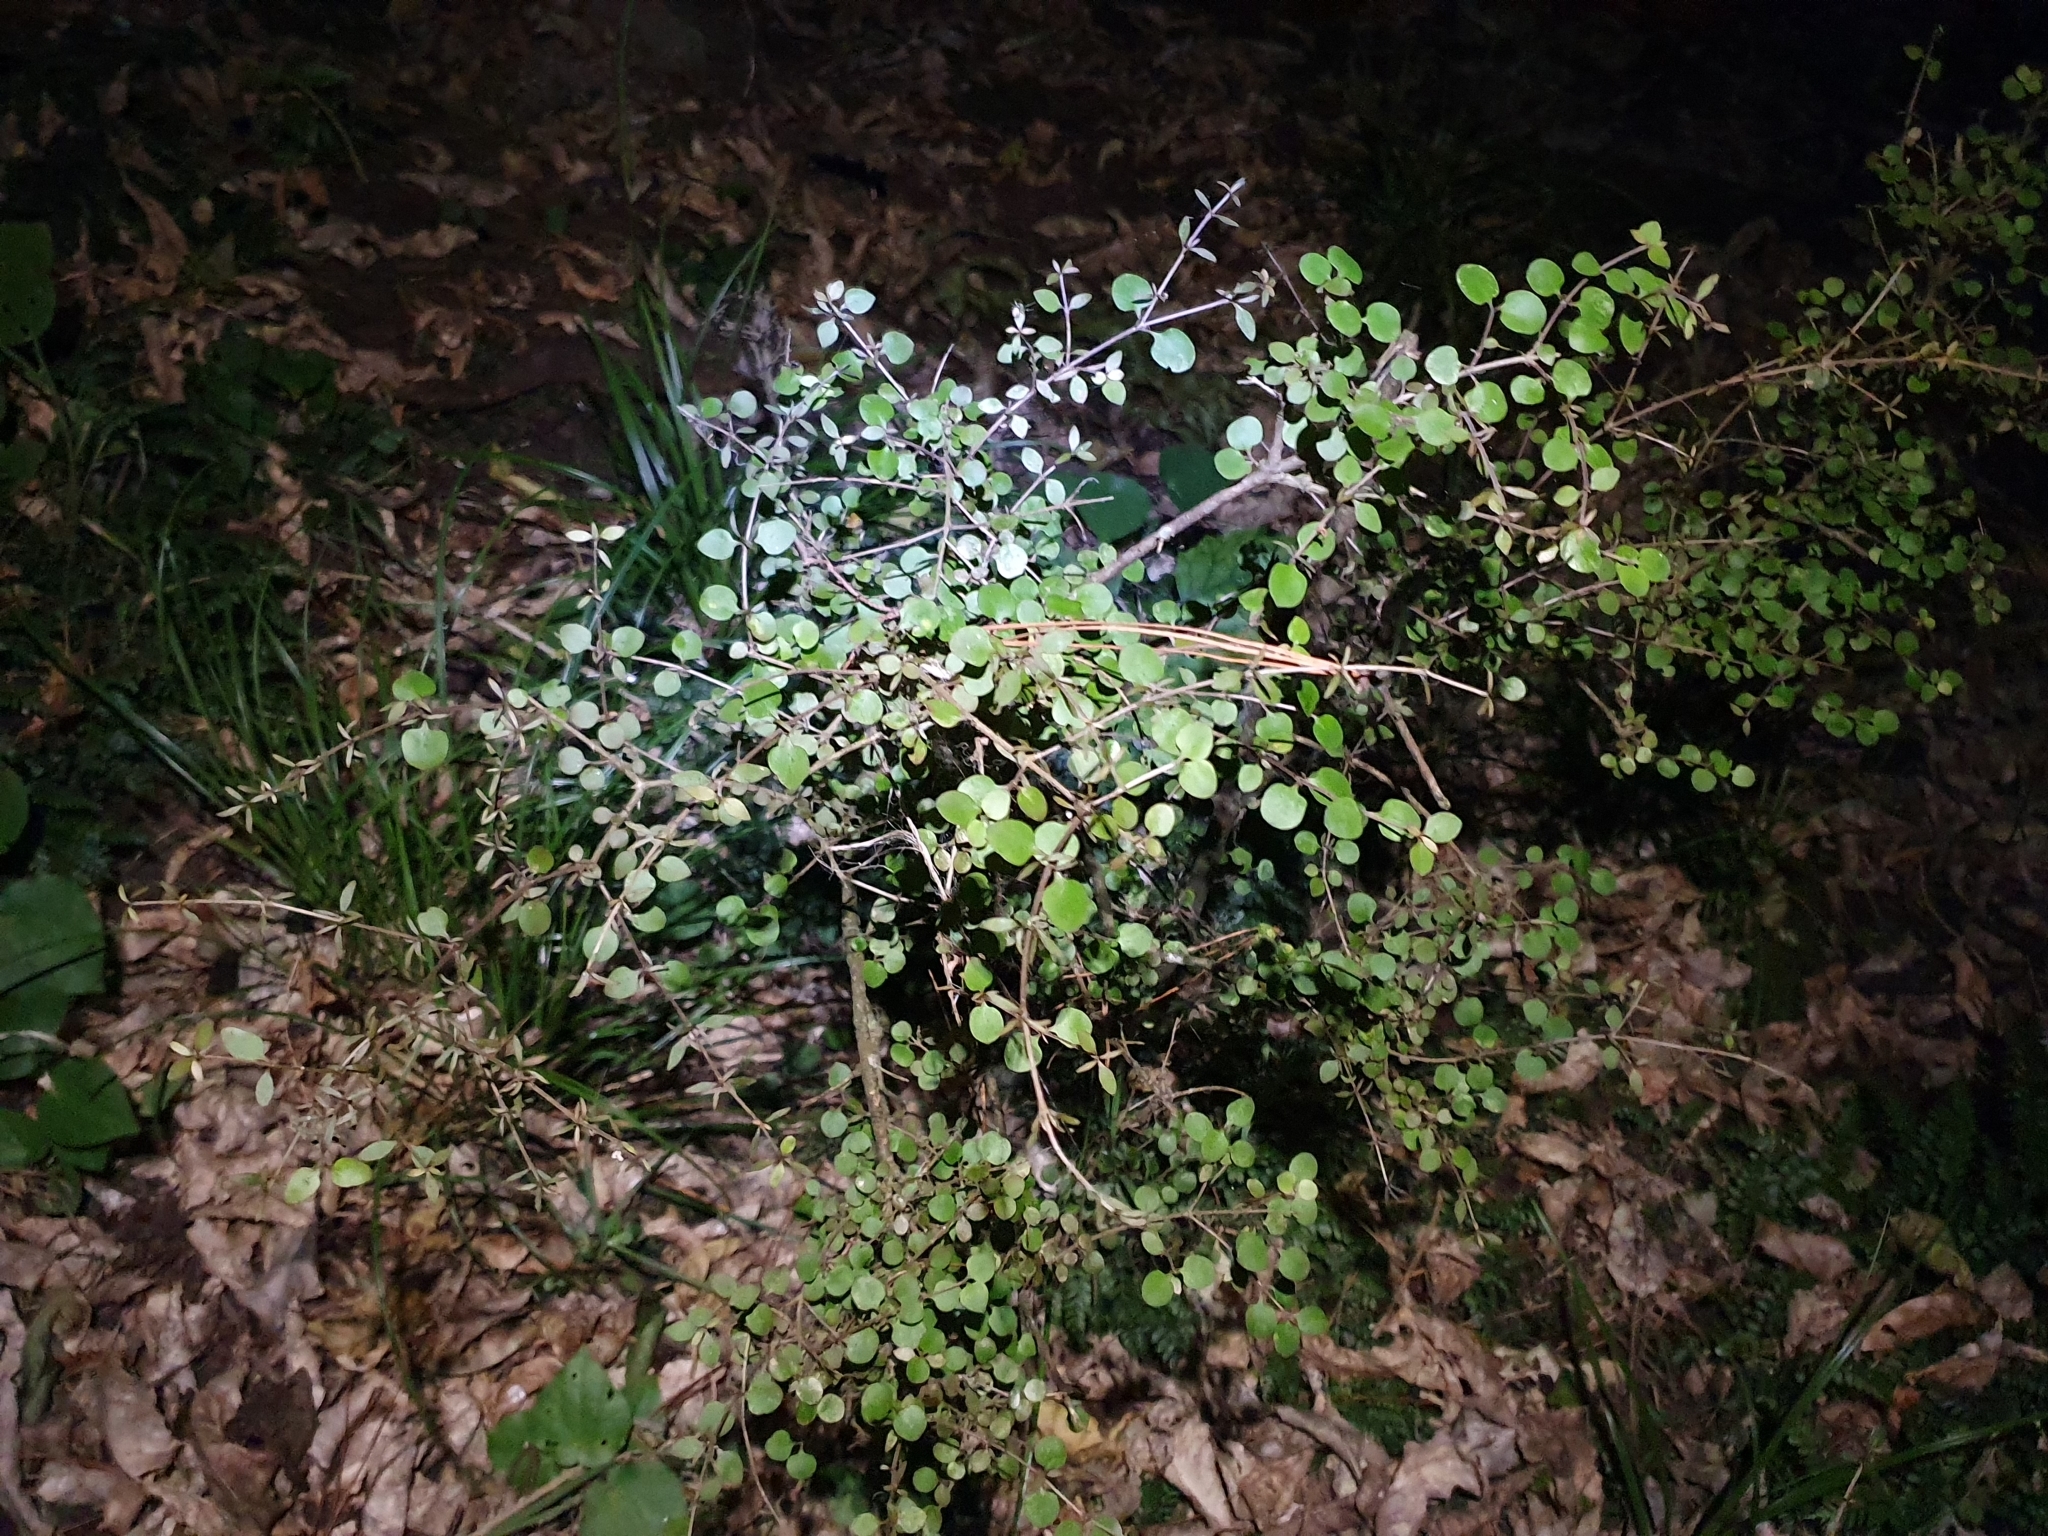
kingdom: Plantae
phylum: Tracheophyta
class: Magnoliopsida
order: Gentianales
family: Rubiaceae
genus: Coprosma
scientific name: Coprosma rhamnoides
